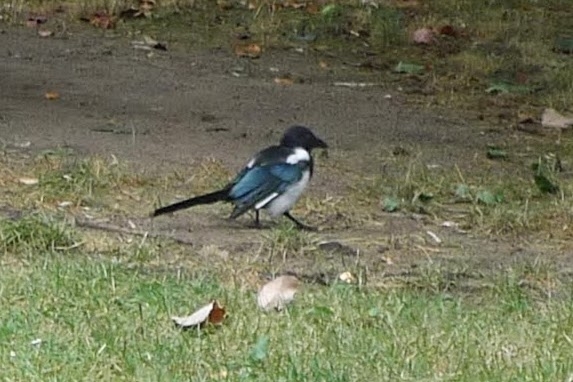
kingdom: Animalia
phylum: Chordata
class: Aves
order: Passeriformes
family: Corvidae
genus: Pica
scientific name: Pica pica
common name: Eurasian magpie
